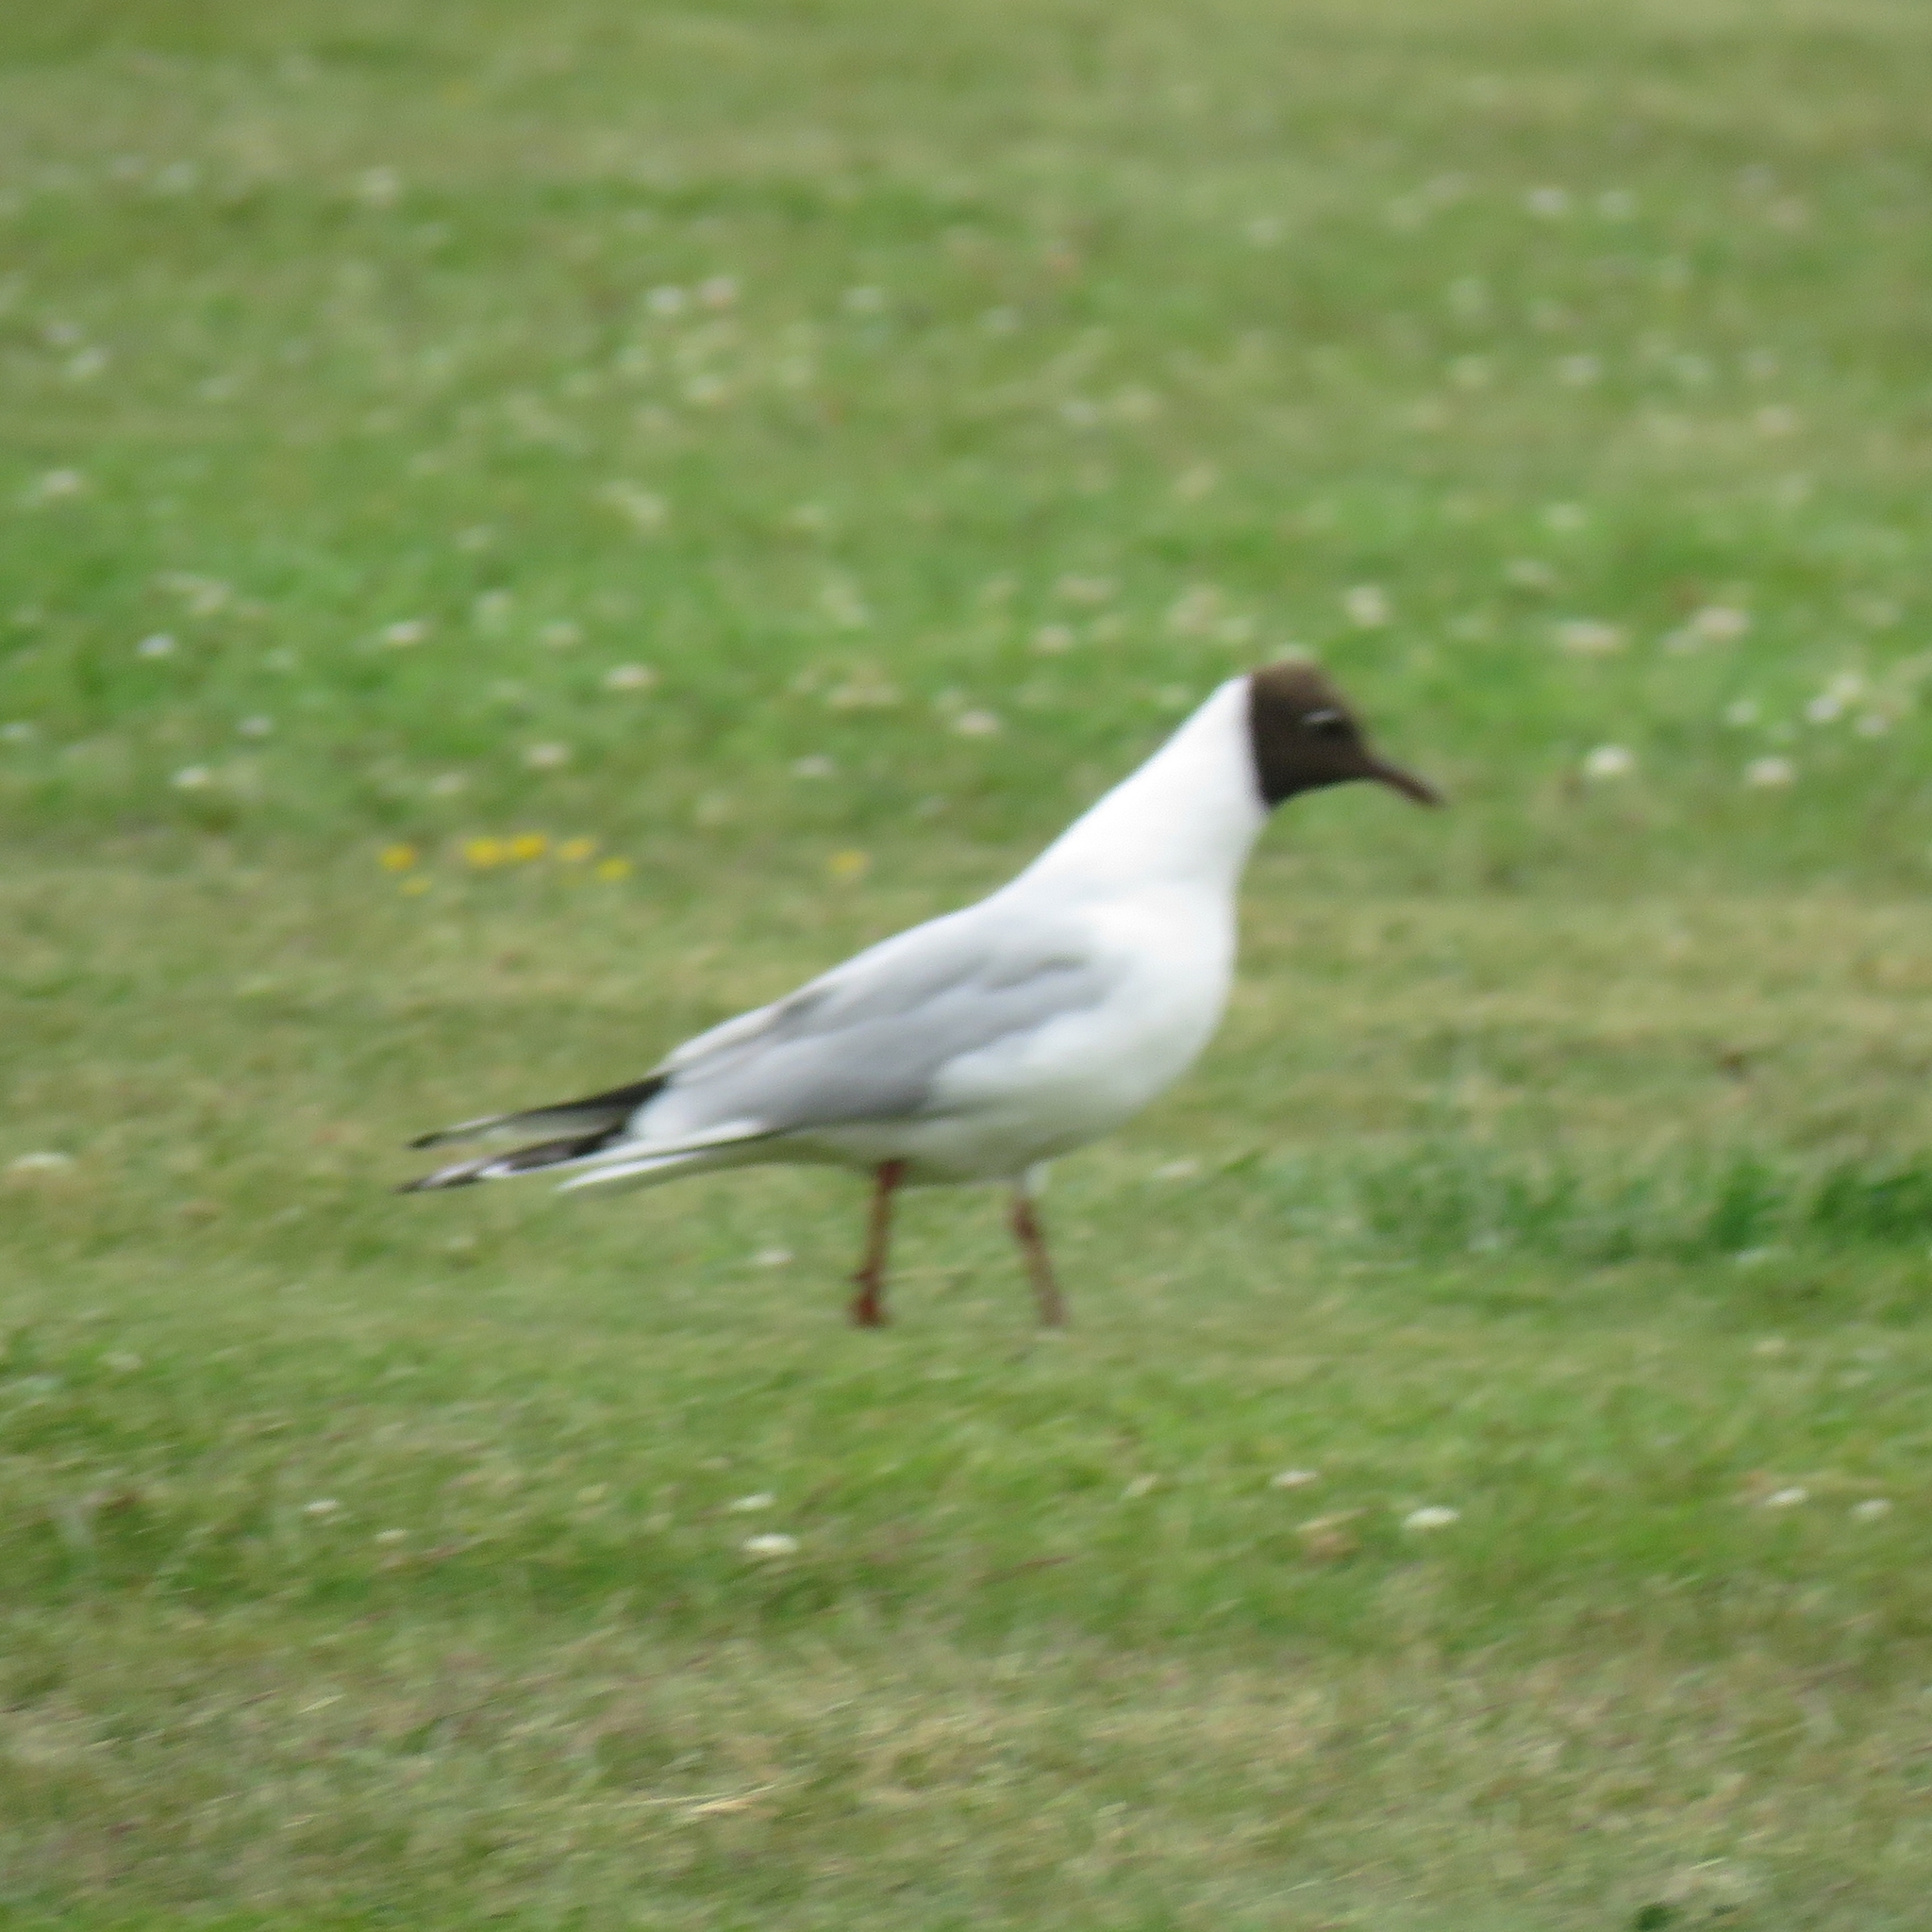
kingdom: Animalia
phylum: Chordata
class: Aves
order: Charadriiformes
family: Laridae
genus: Chroicocephalus
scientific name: Chroicocephalus ridibundus
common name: Black-headed gull
